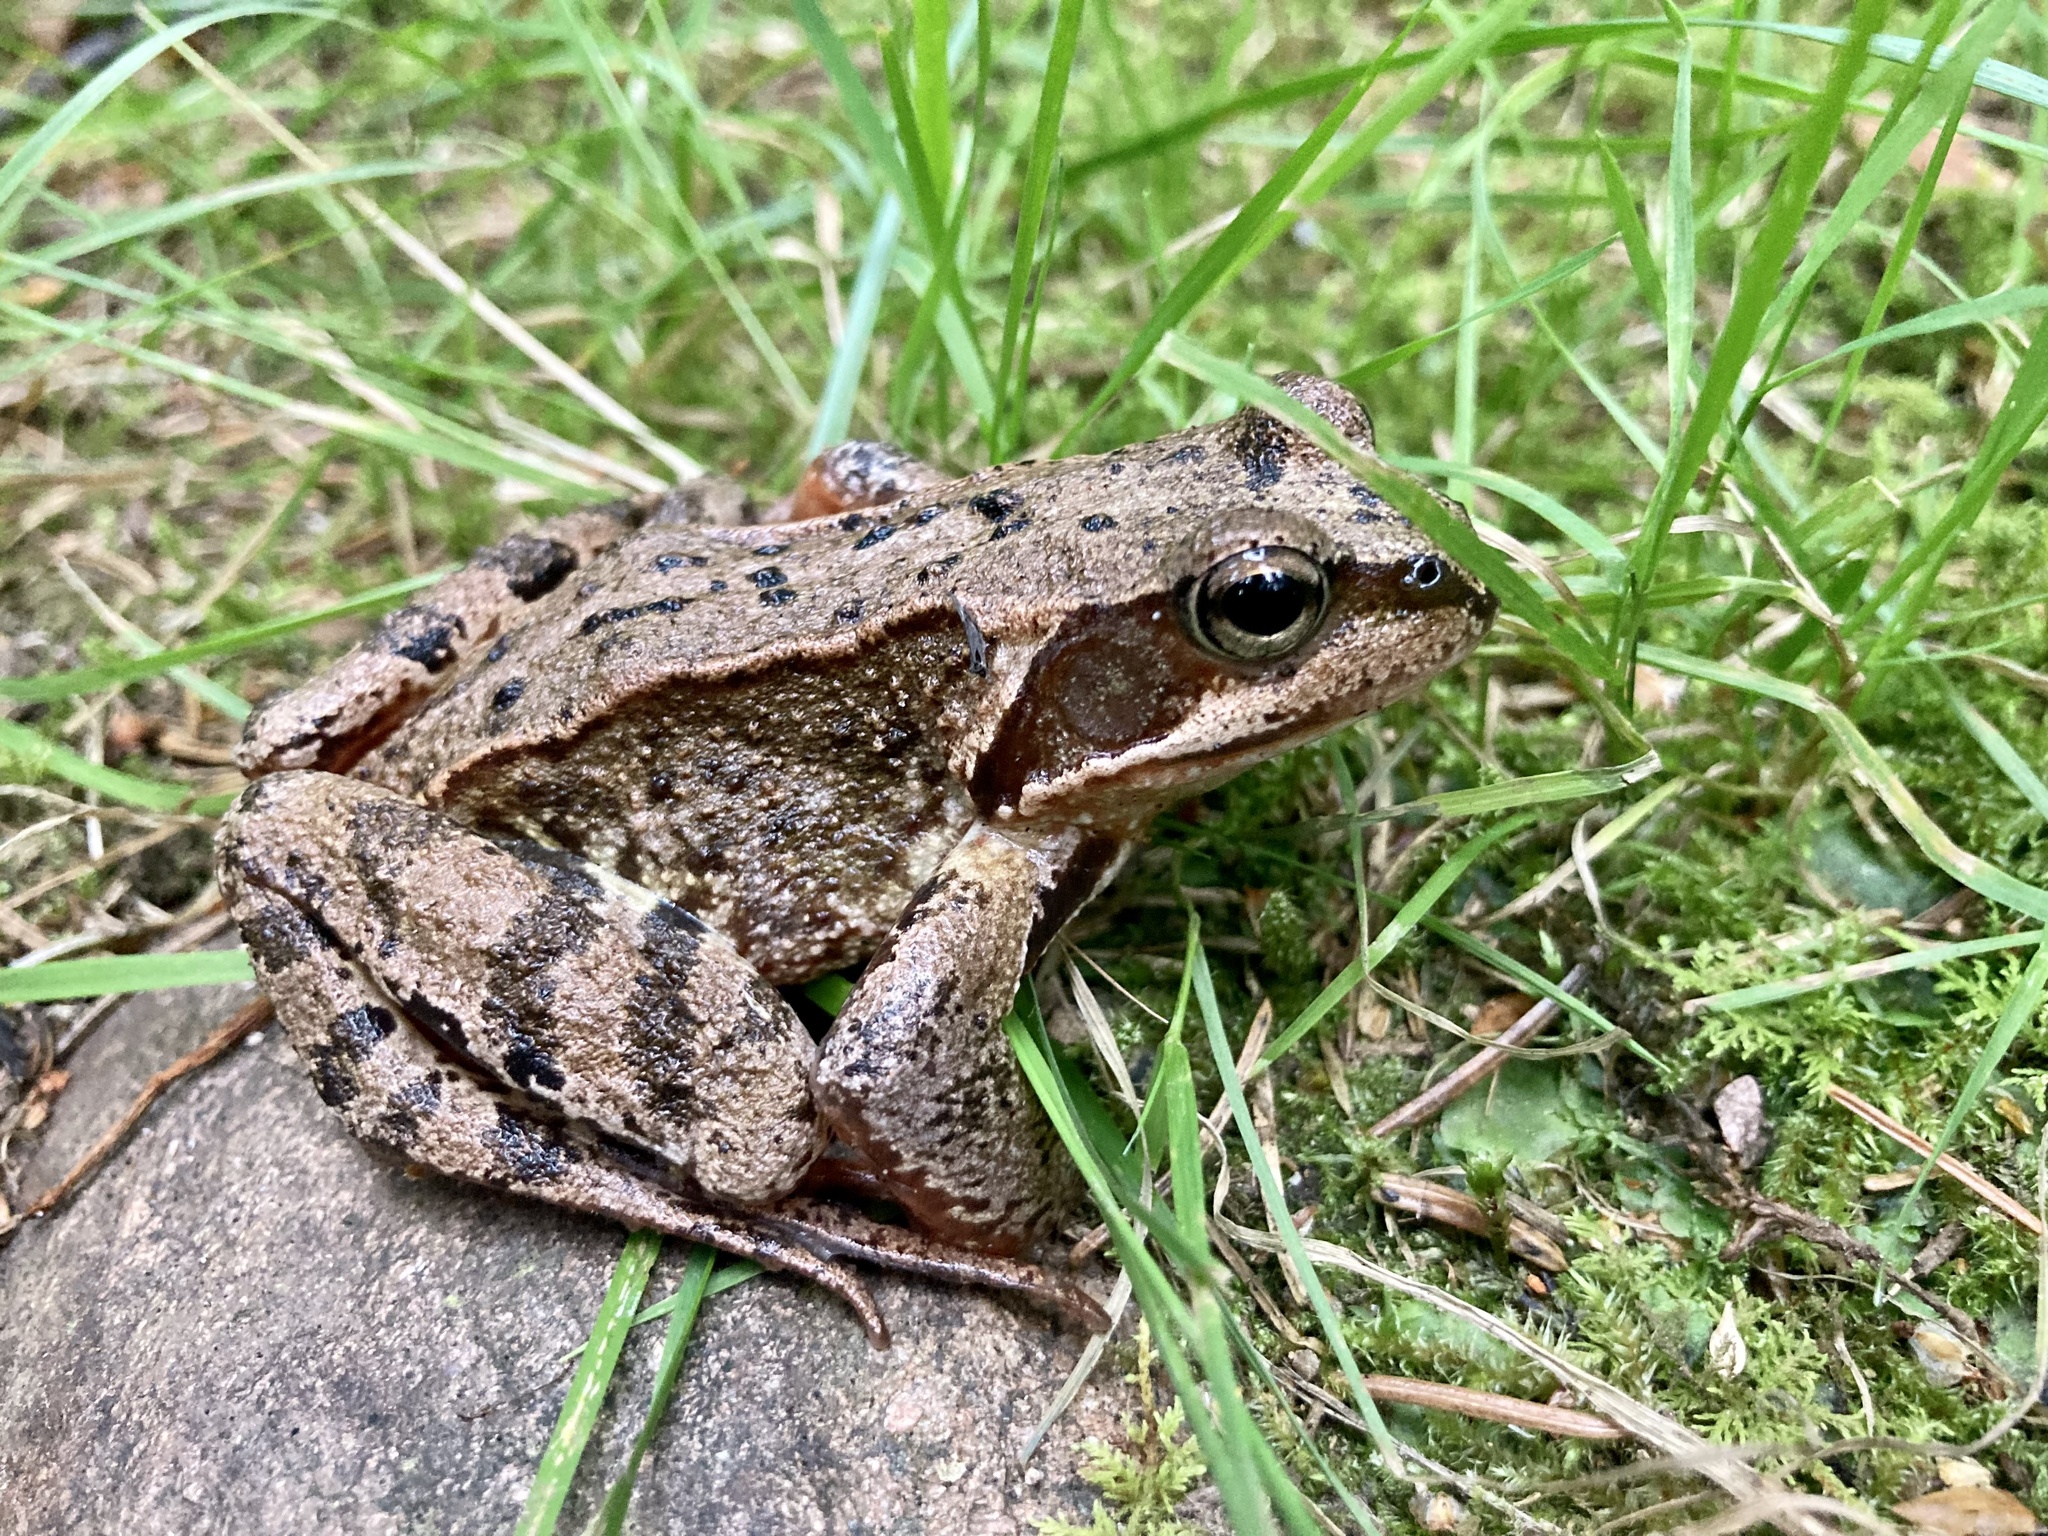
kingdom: Animalia
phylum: Chordata
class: Amphibia
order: Anura
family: Ranidae
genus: Rana
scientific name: Rana temporaria
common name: Common frog
